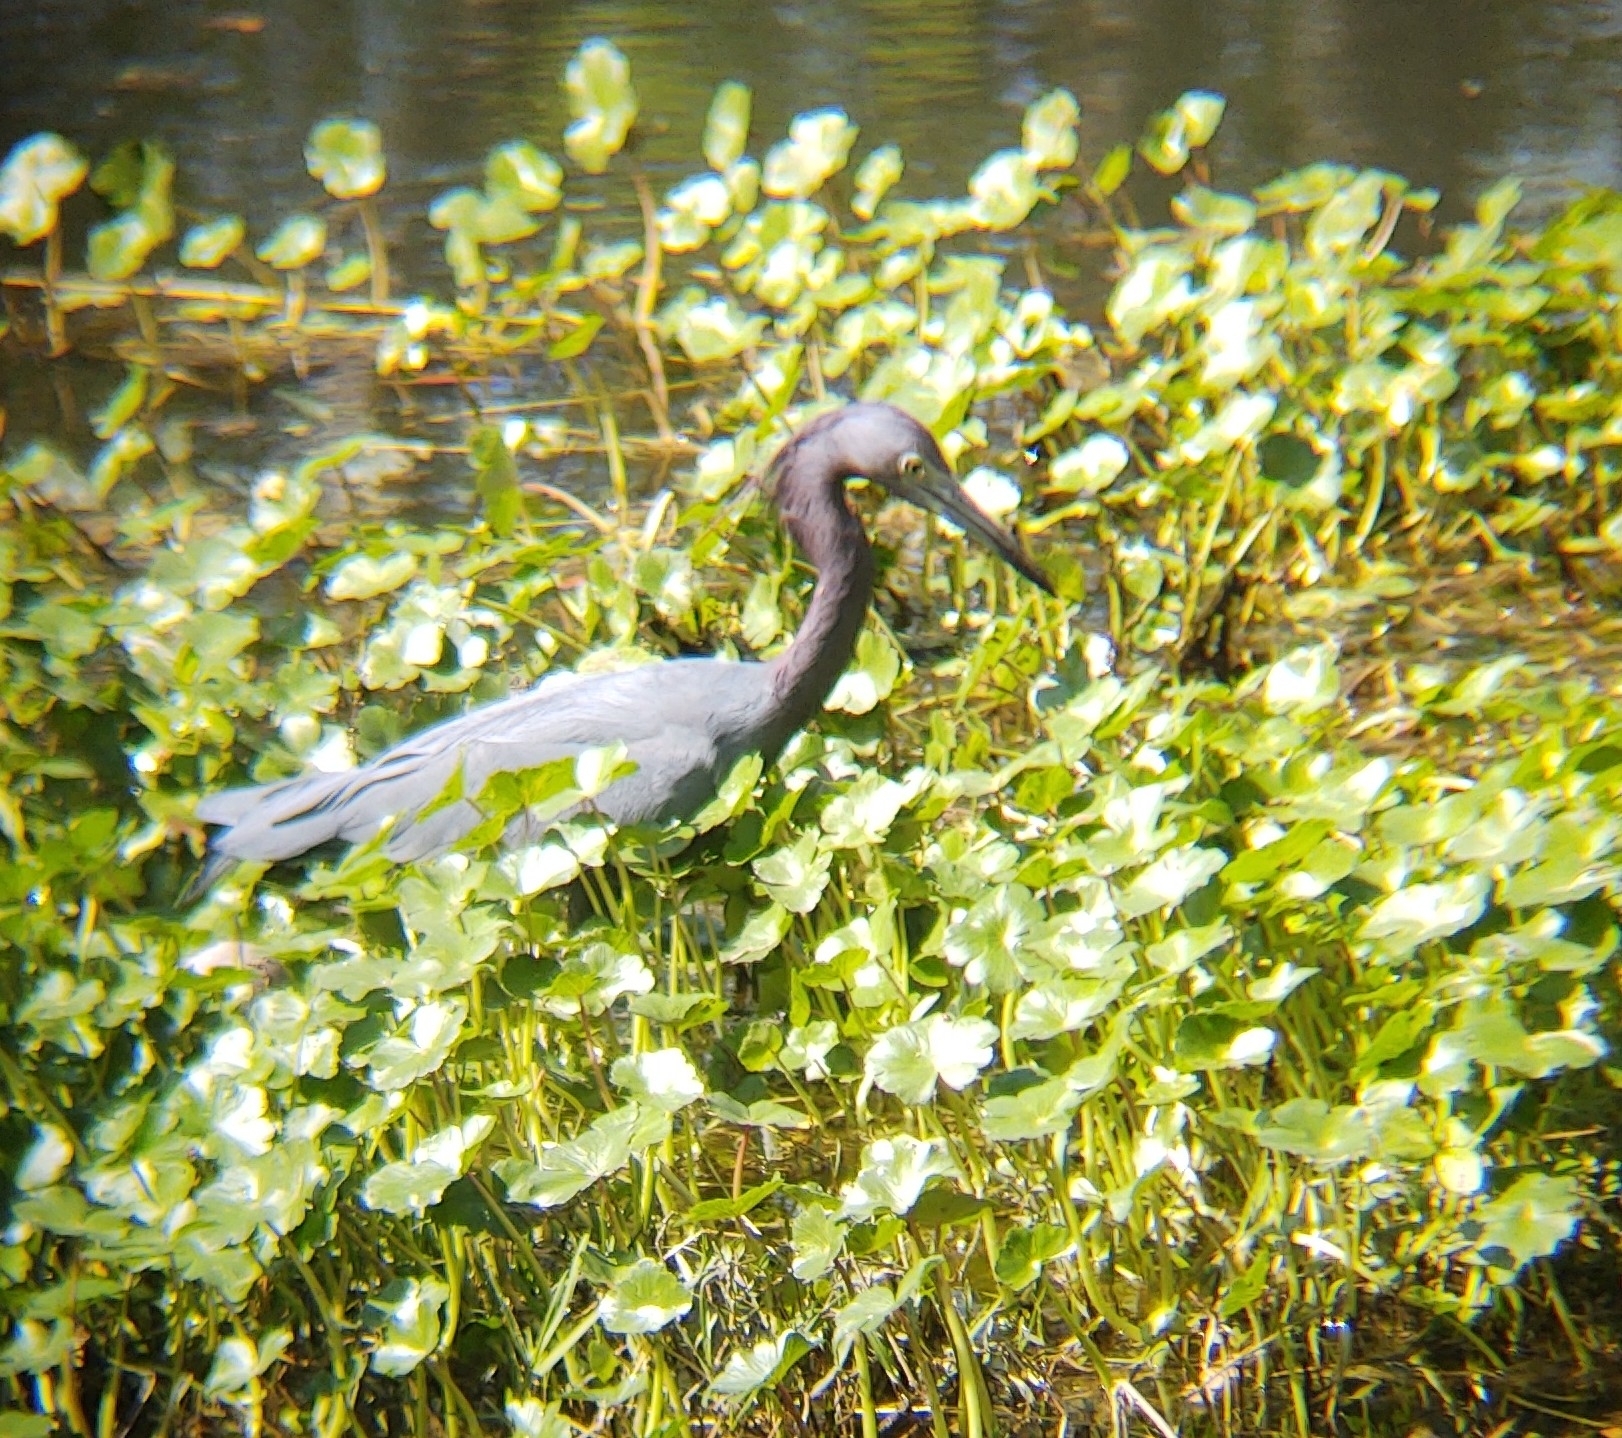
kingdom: Animalia
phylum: Chordata
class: Aves
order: Pelecaniformes
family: Ardeidae
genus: Egretta
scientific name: Egretta caerulea
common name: Little blue heron
